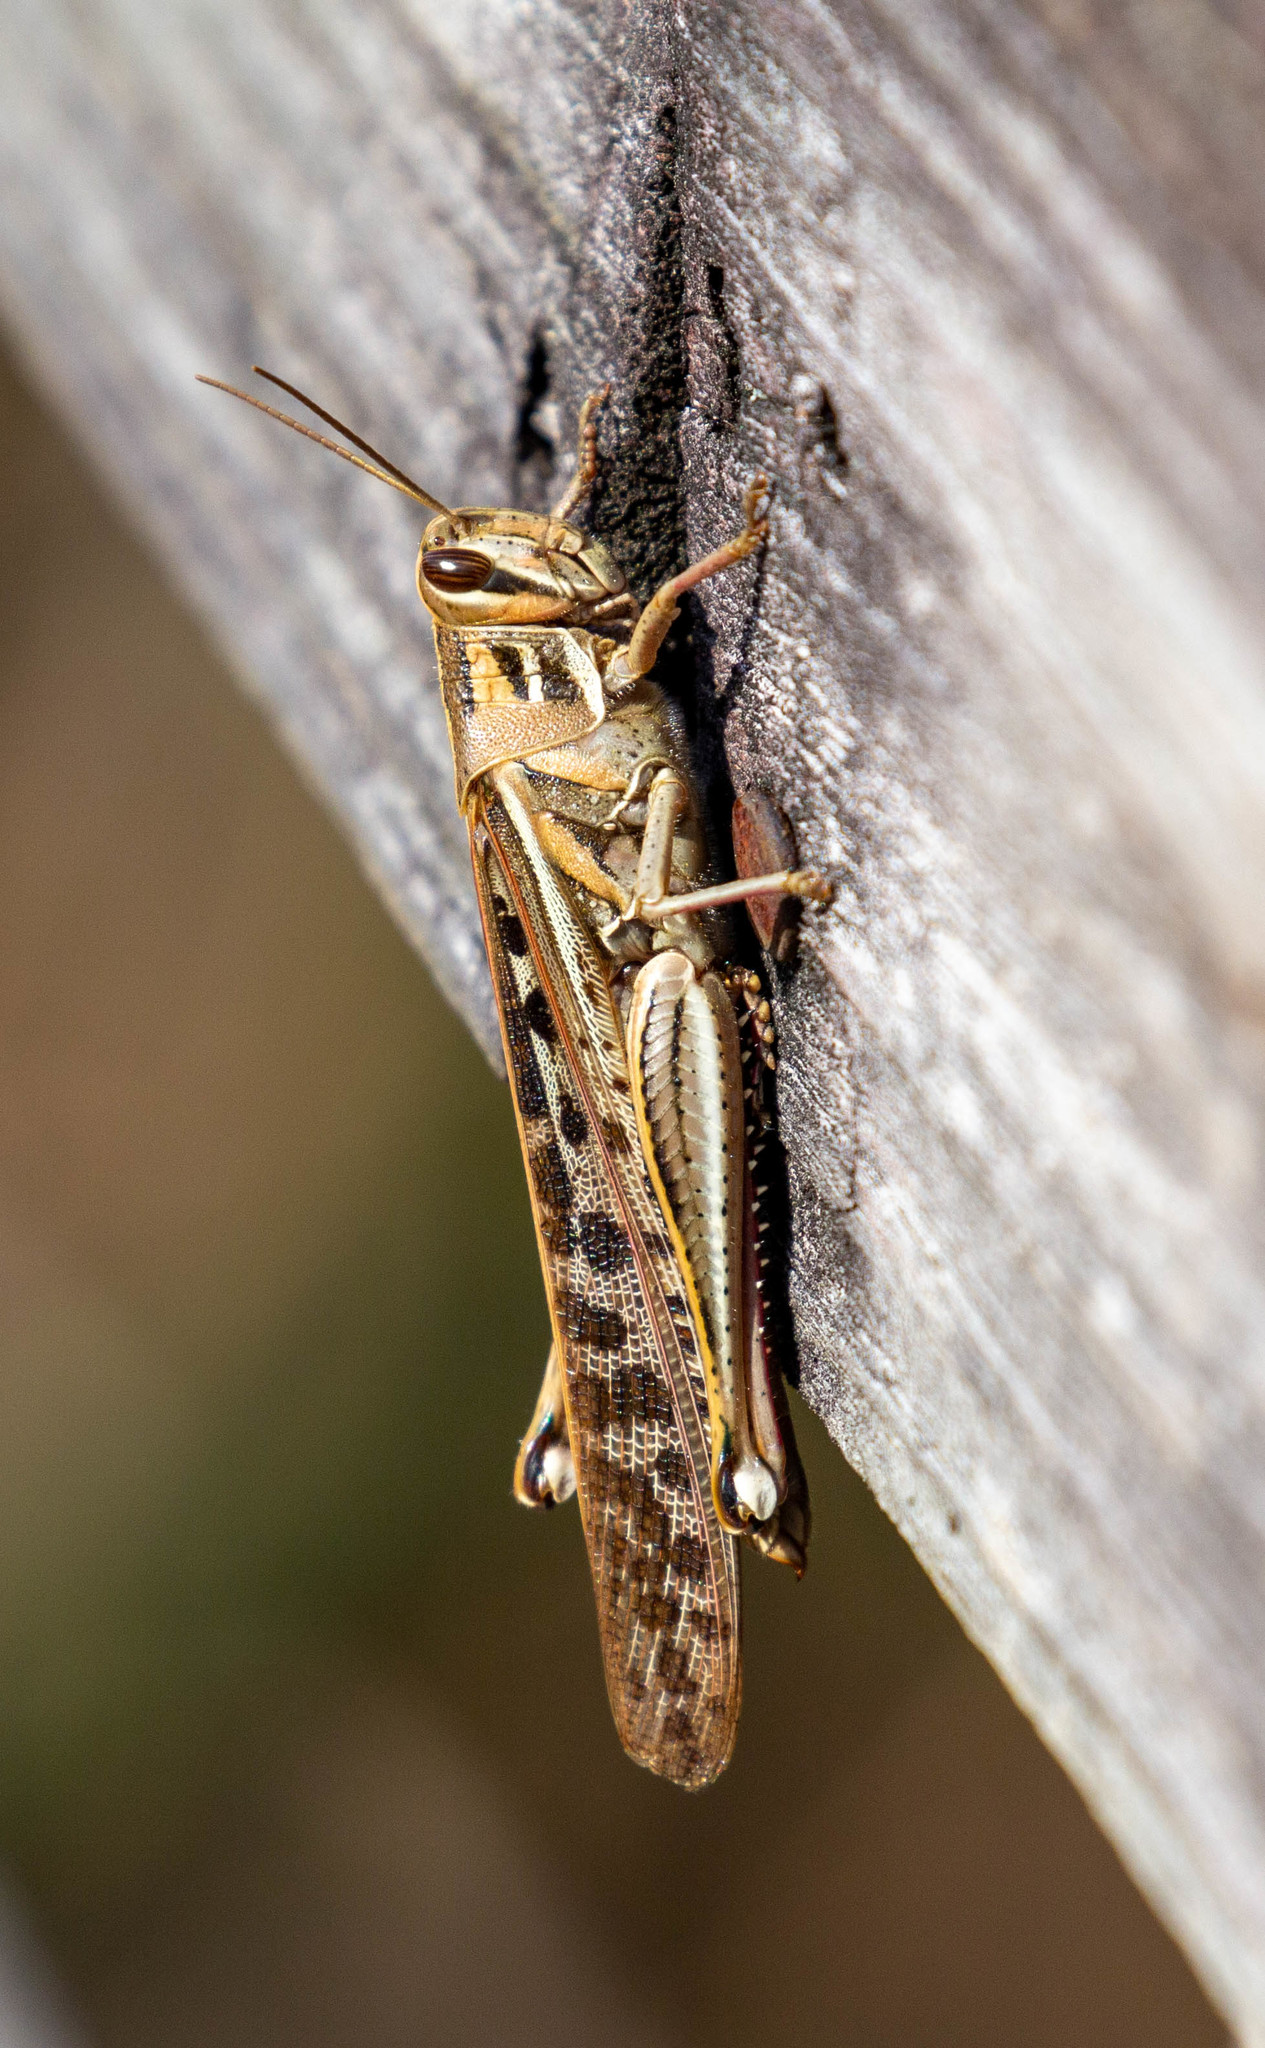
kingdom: Animalia
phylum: Arthropoda
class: Insecta
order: Orthoptera
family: Acrididae
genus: Schistocerca
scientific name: Schistocerca americana
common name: American bird locust
